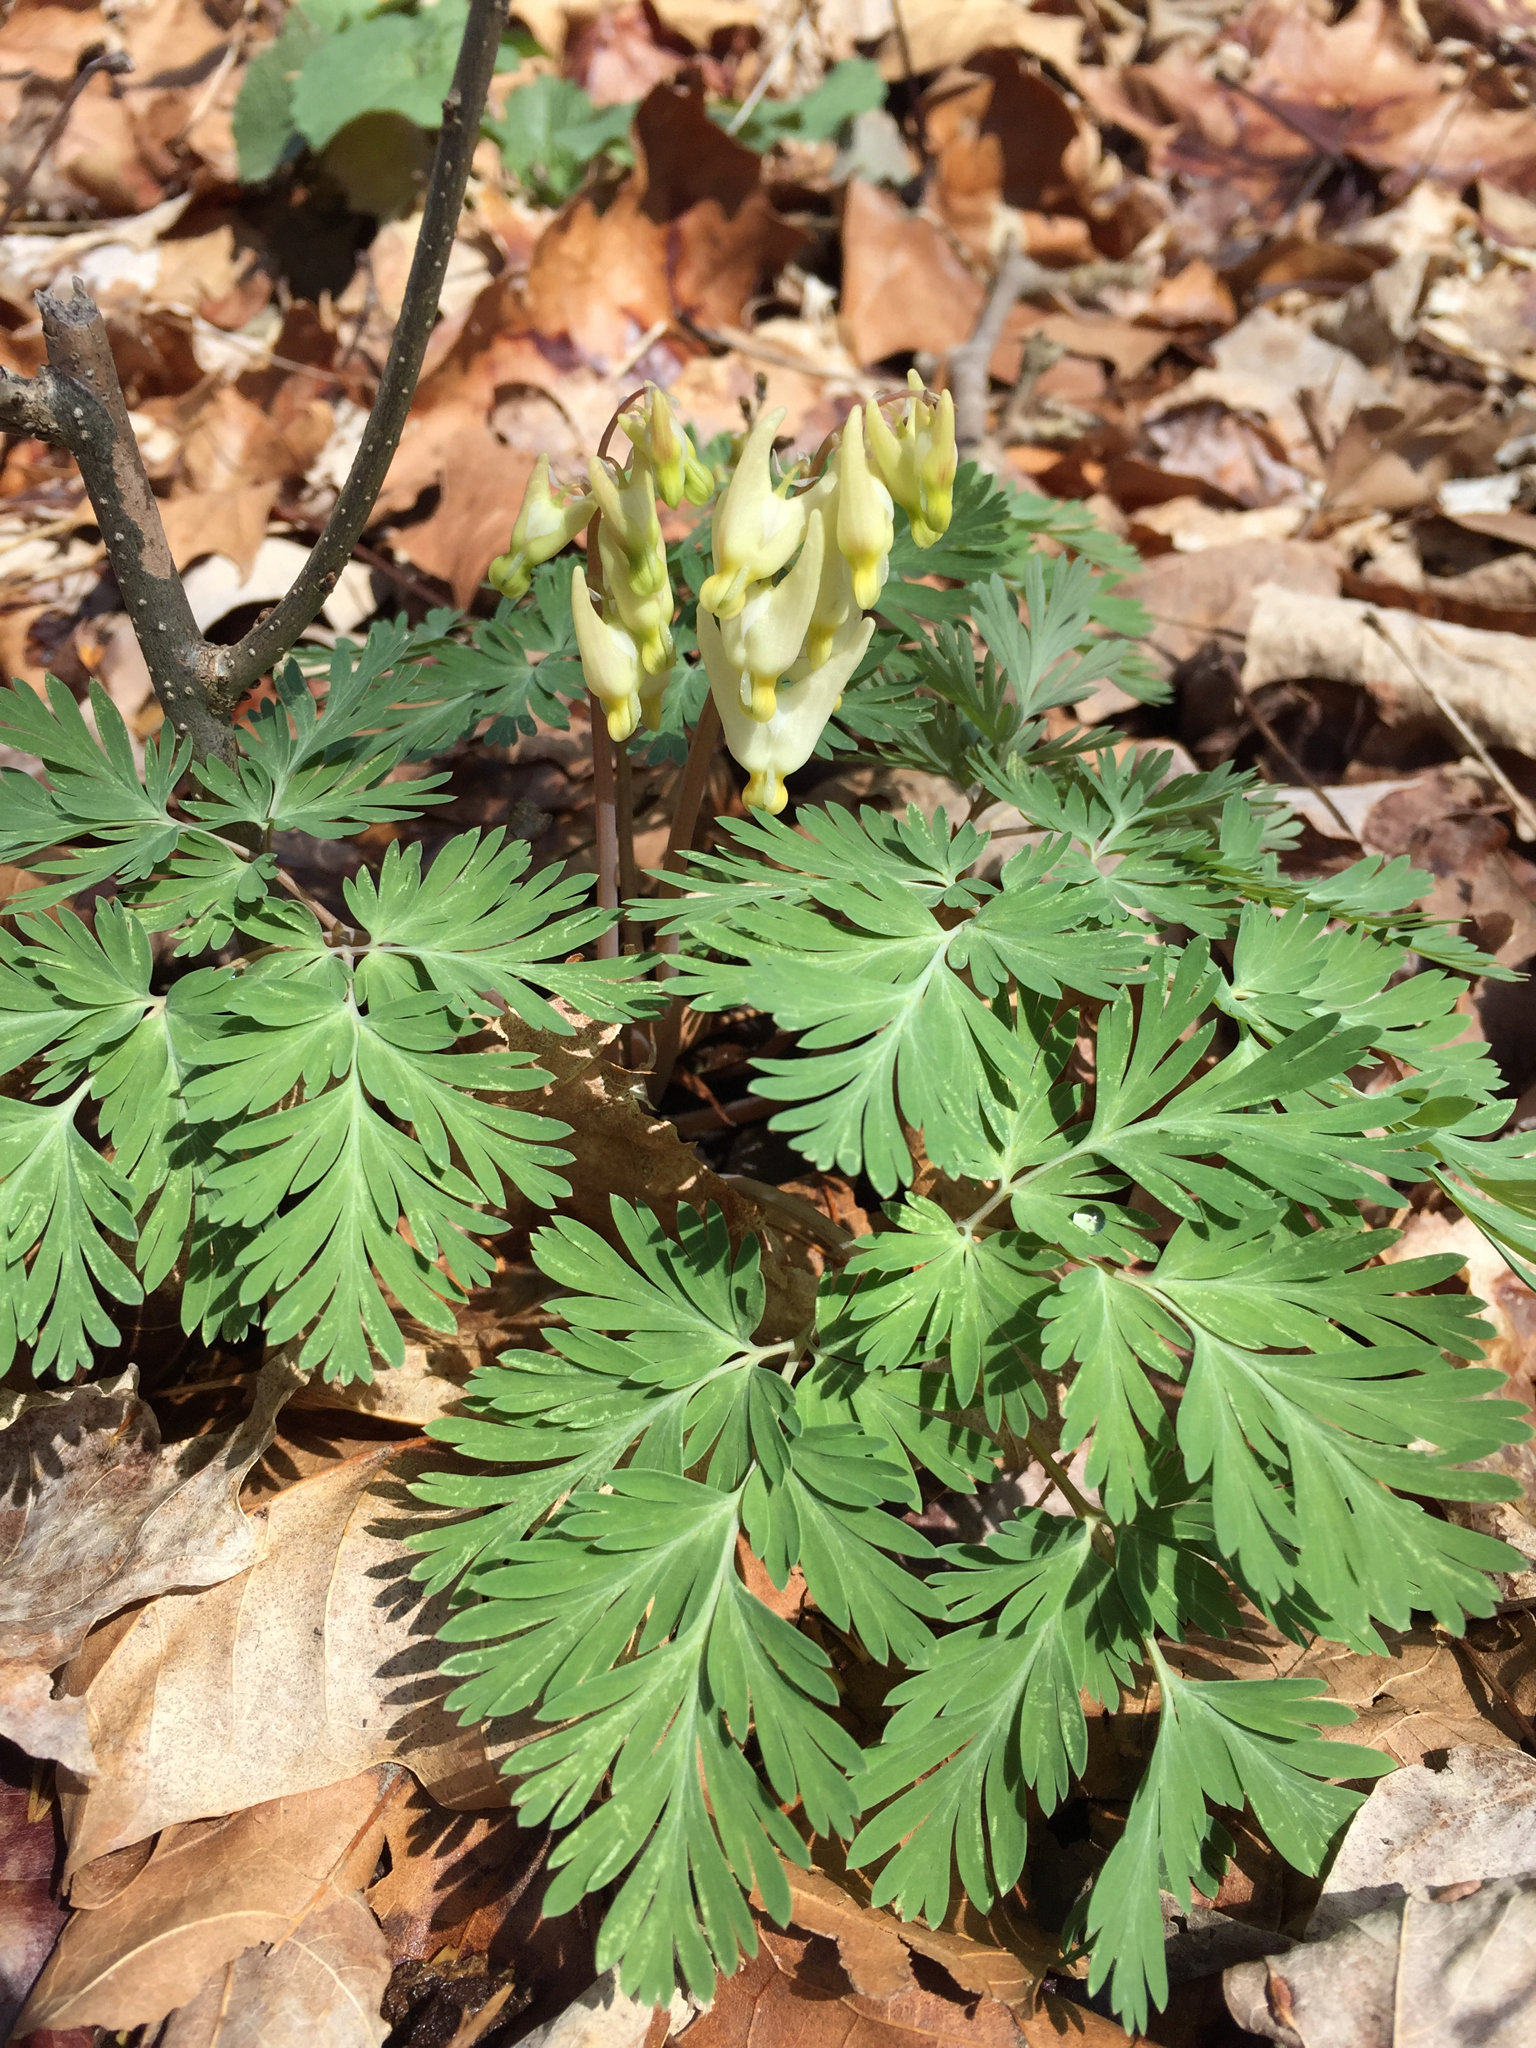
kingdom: Plantae
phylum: Tracheophyta
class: Magnoliopsida
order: Ranunculales
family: Papaveraceae
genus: Dicentra
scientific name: Dicentra cucullaria
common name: Dutchman's breeches
